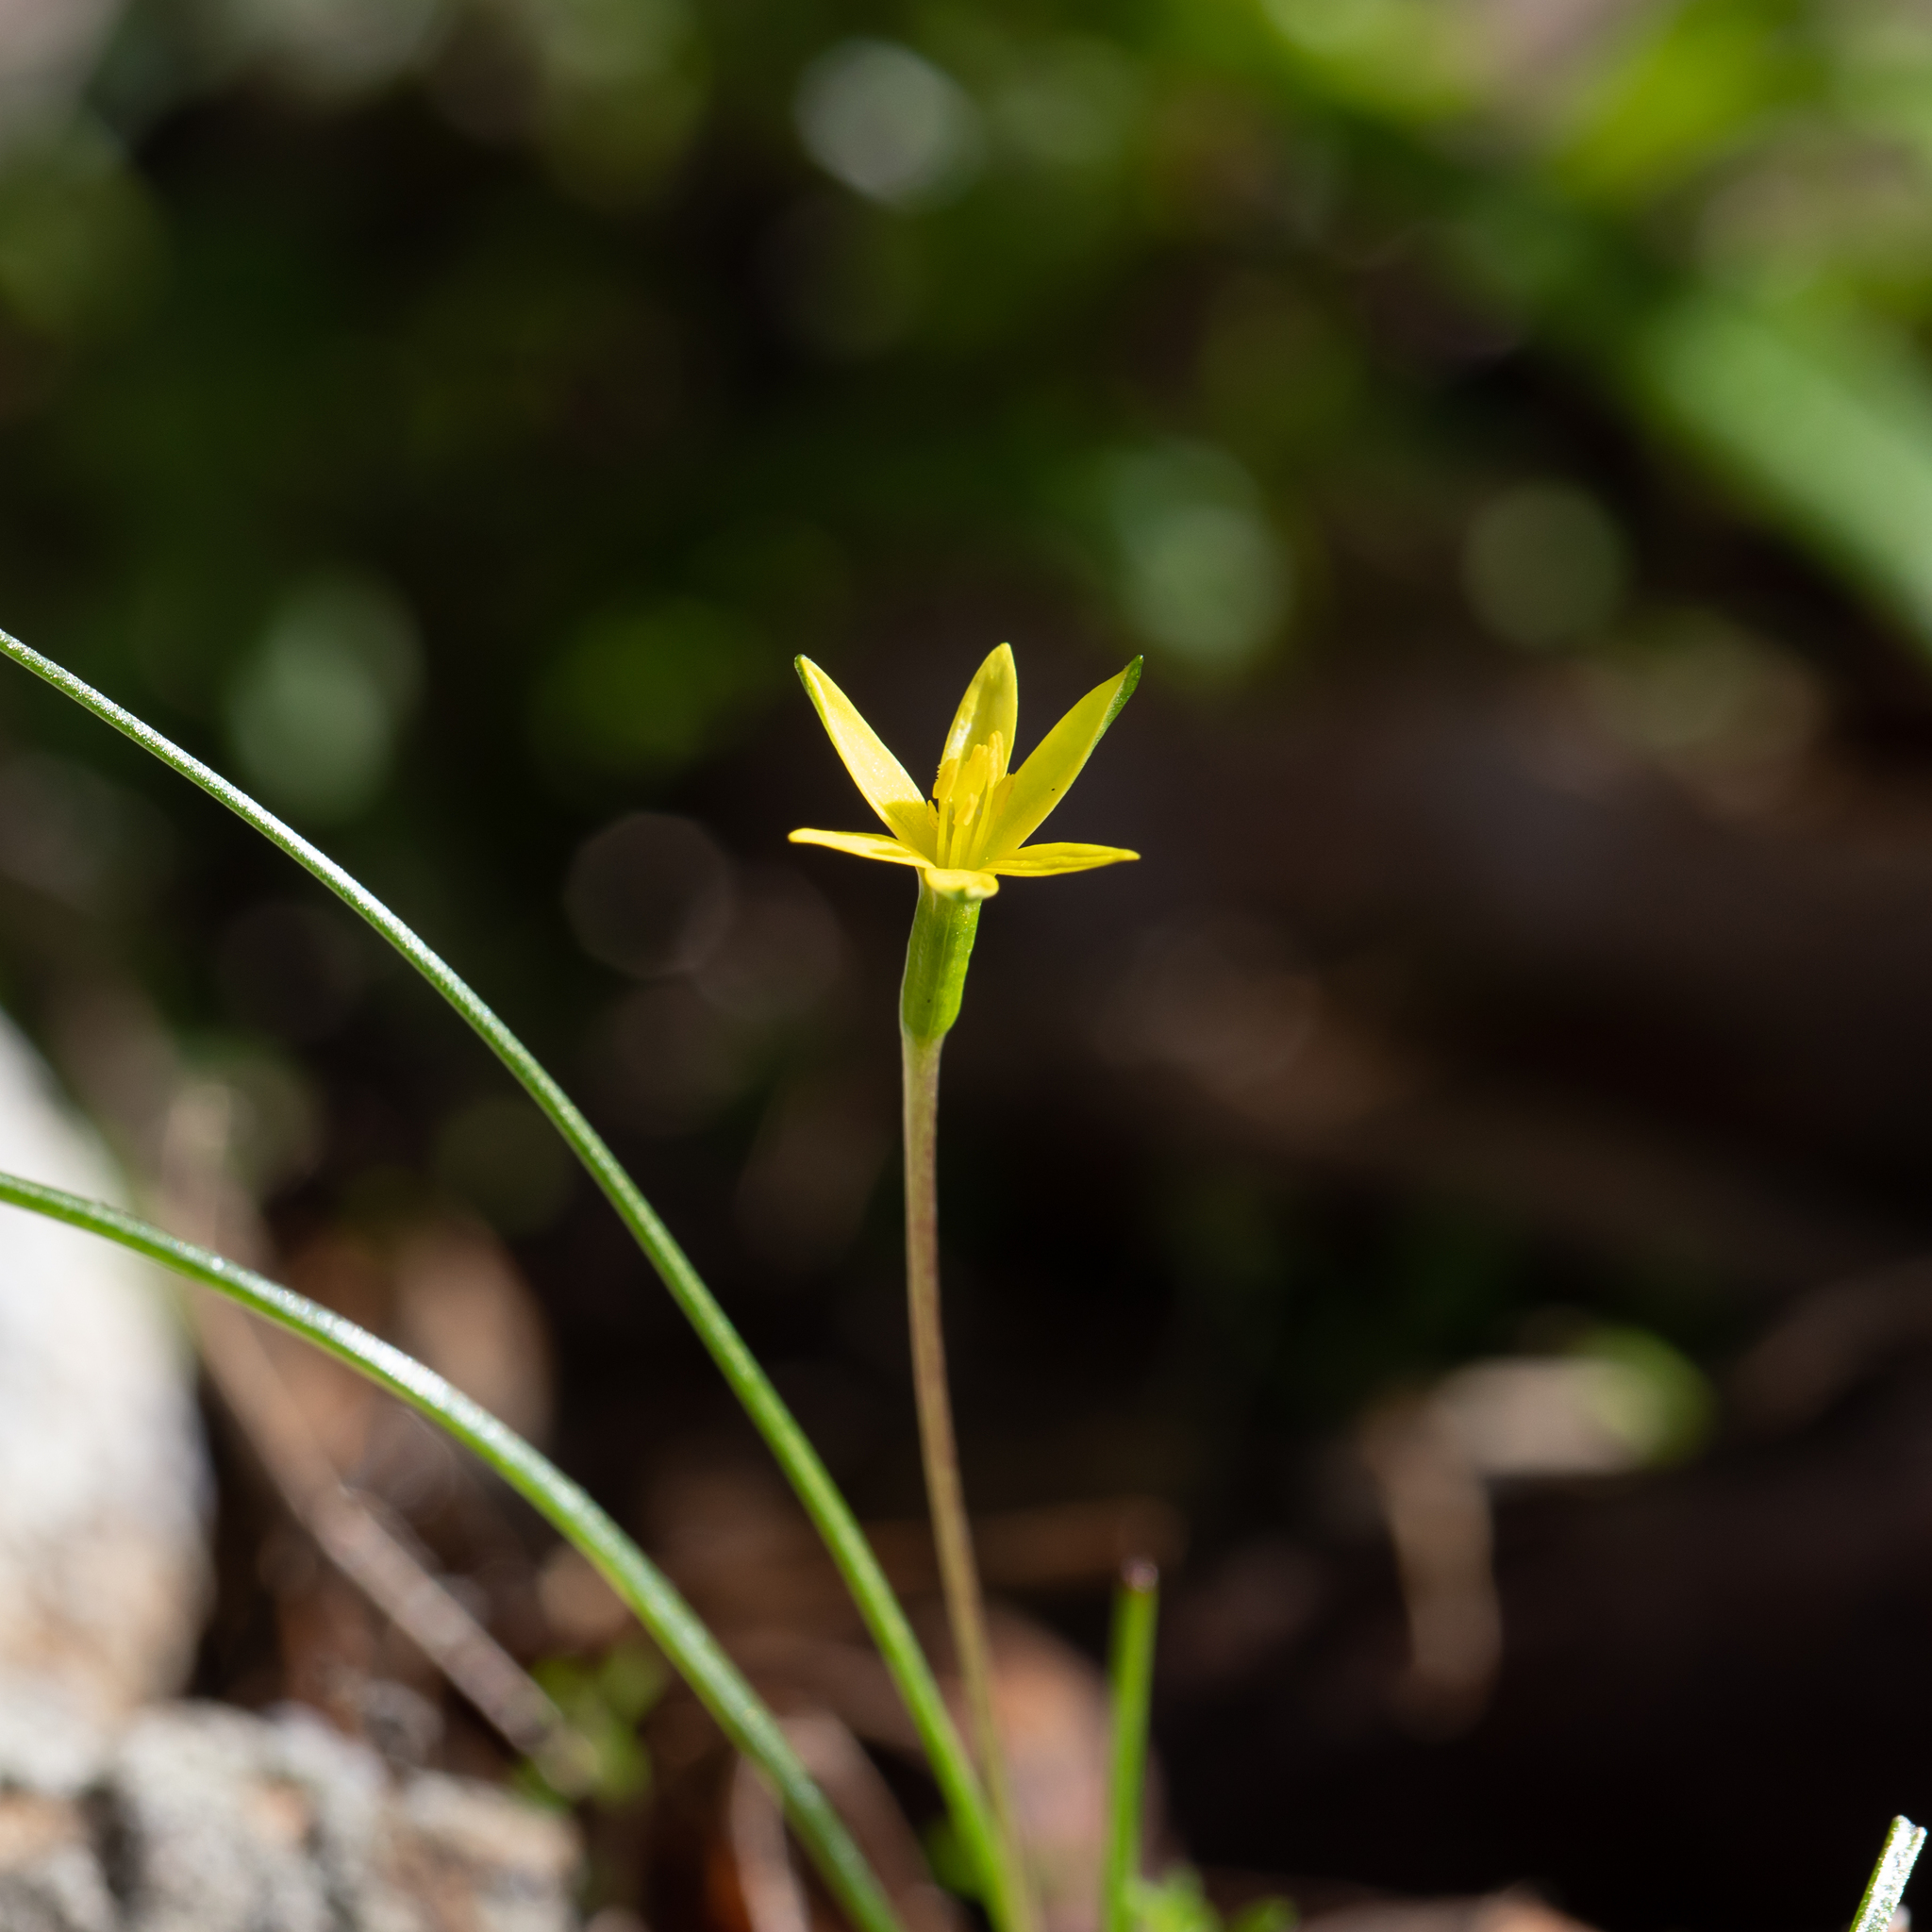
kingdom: Plantae
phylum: Tracheophyta
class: Liliopsida
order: Asparagales
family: Hypoxidaceae
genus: Pauridia
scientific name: Pauridia glabella
